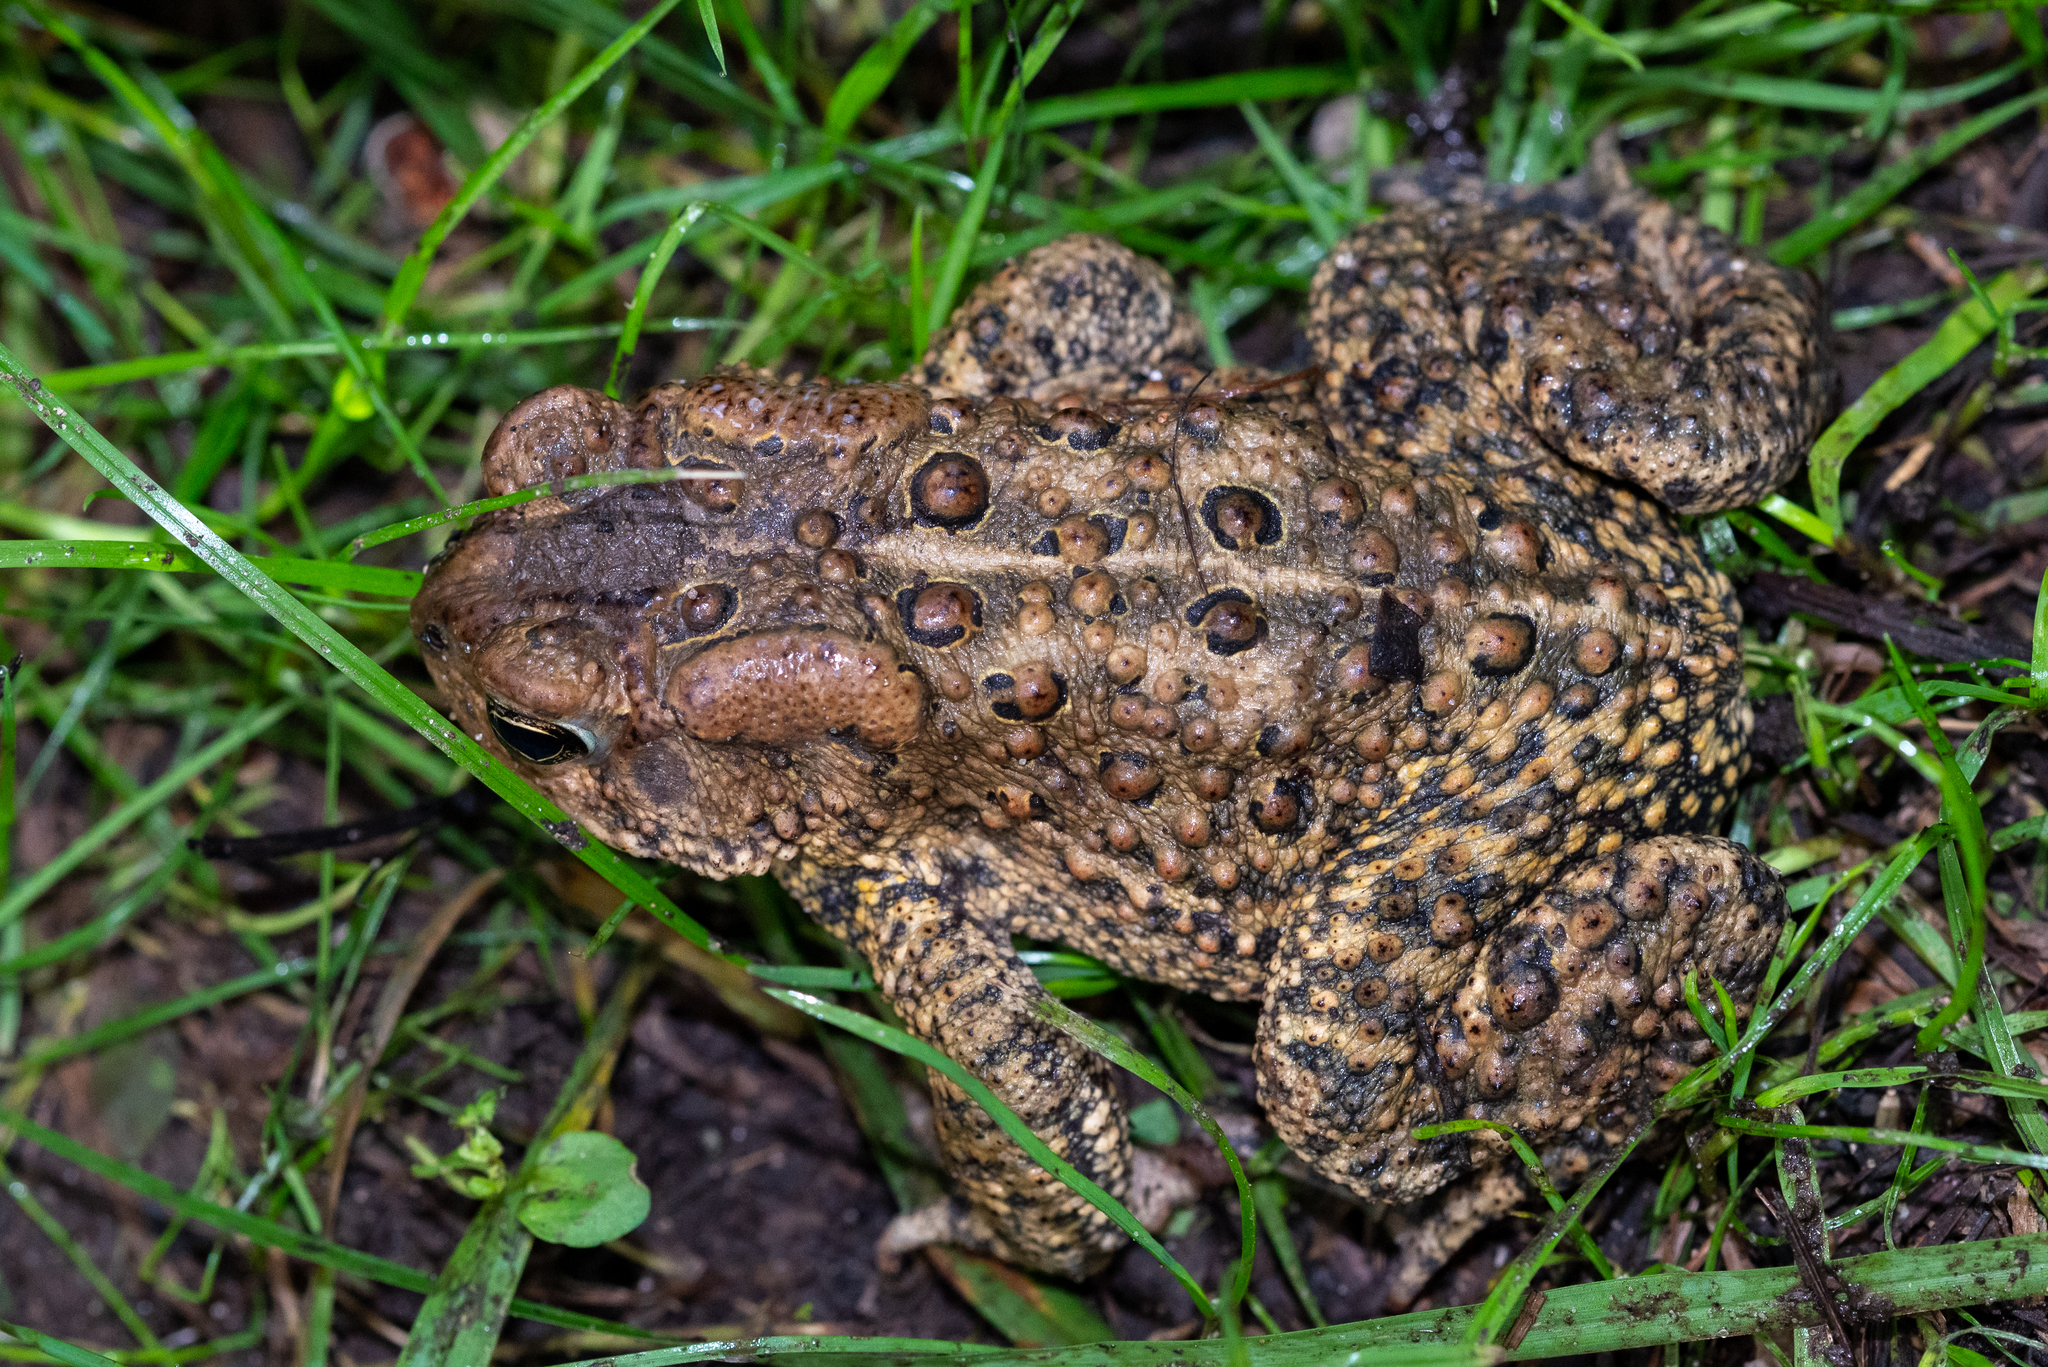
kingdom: Animalia
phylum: Chordata
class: Amphibia
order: Anura
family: Bufonidae
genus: Anaxyrus
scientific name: Anaxyrus americanus
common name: American toad
